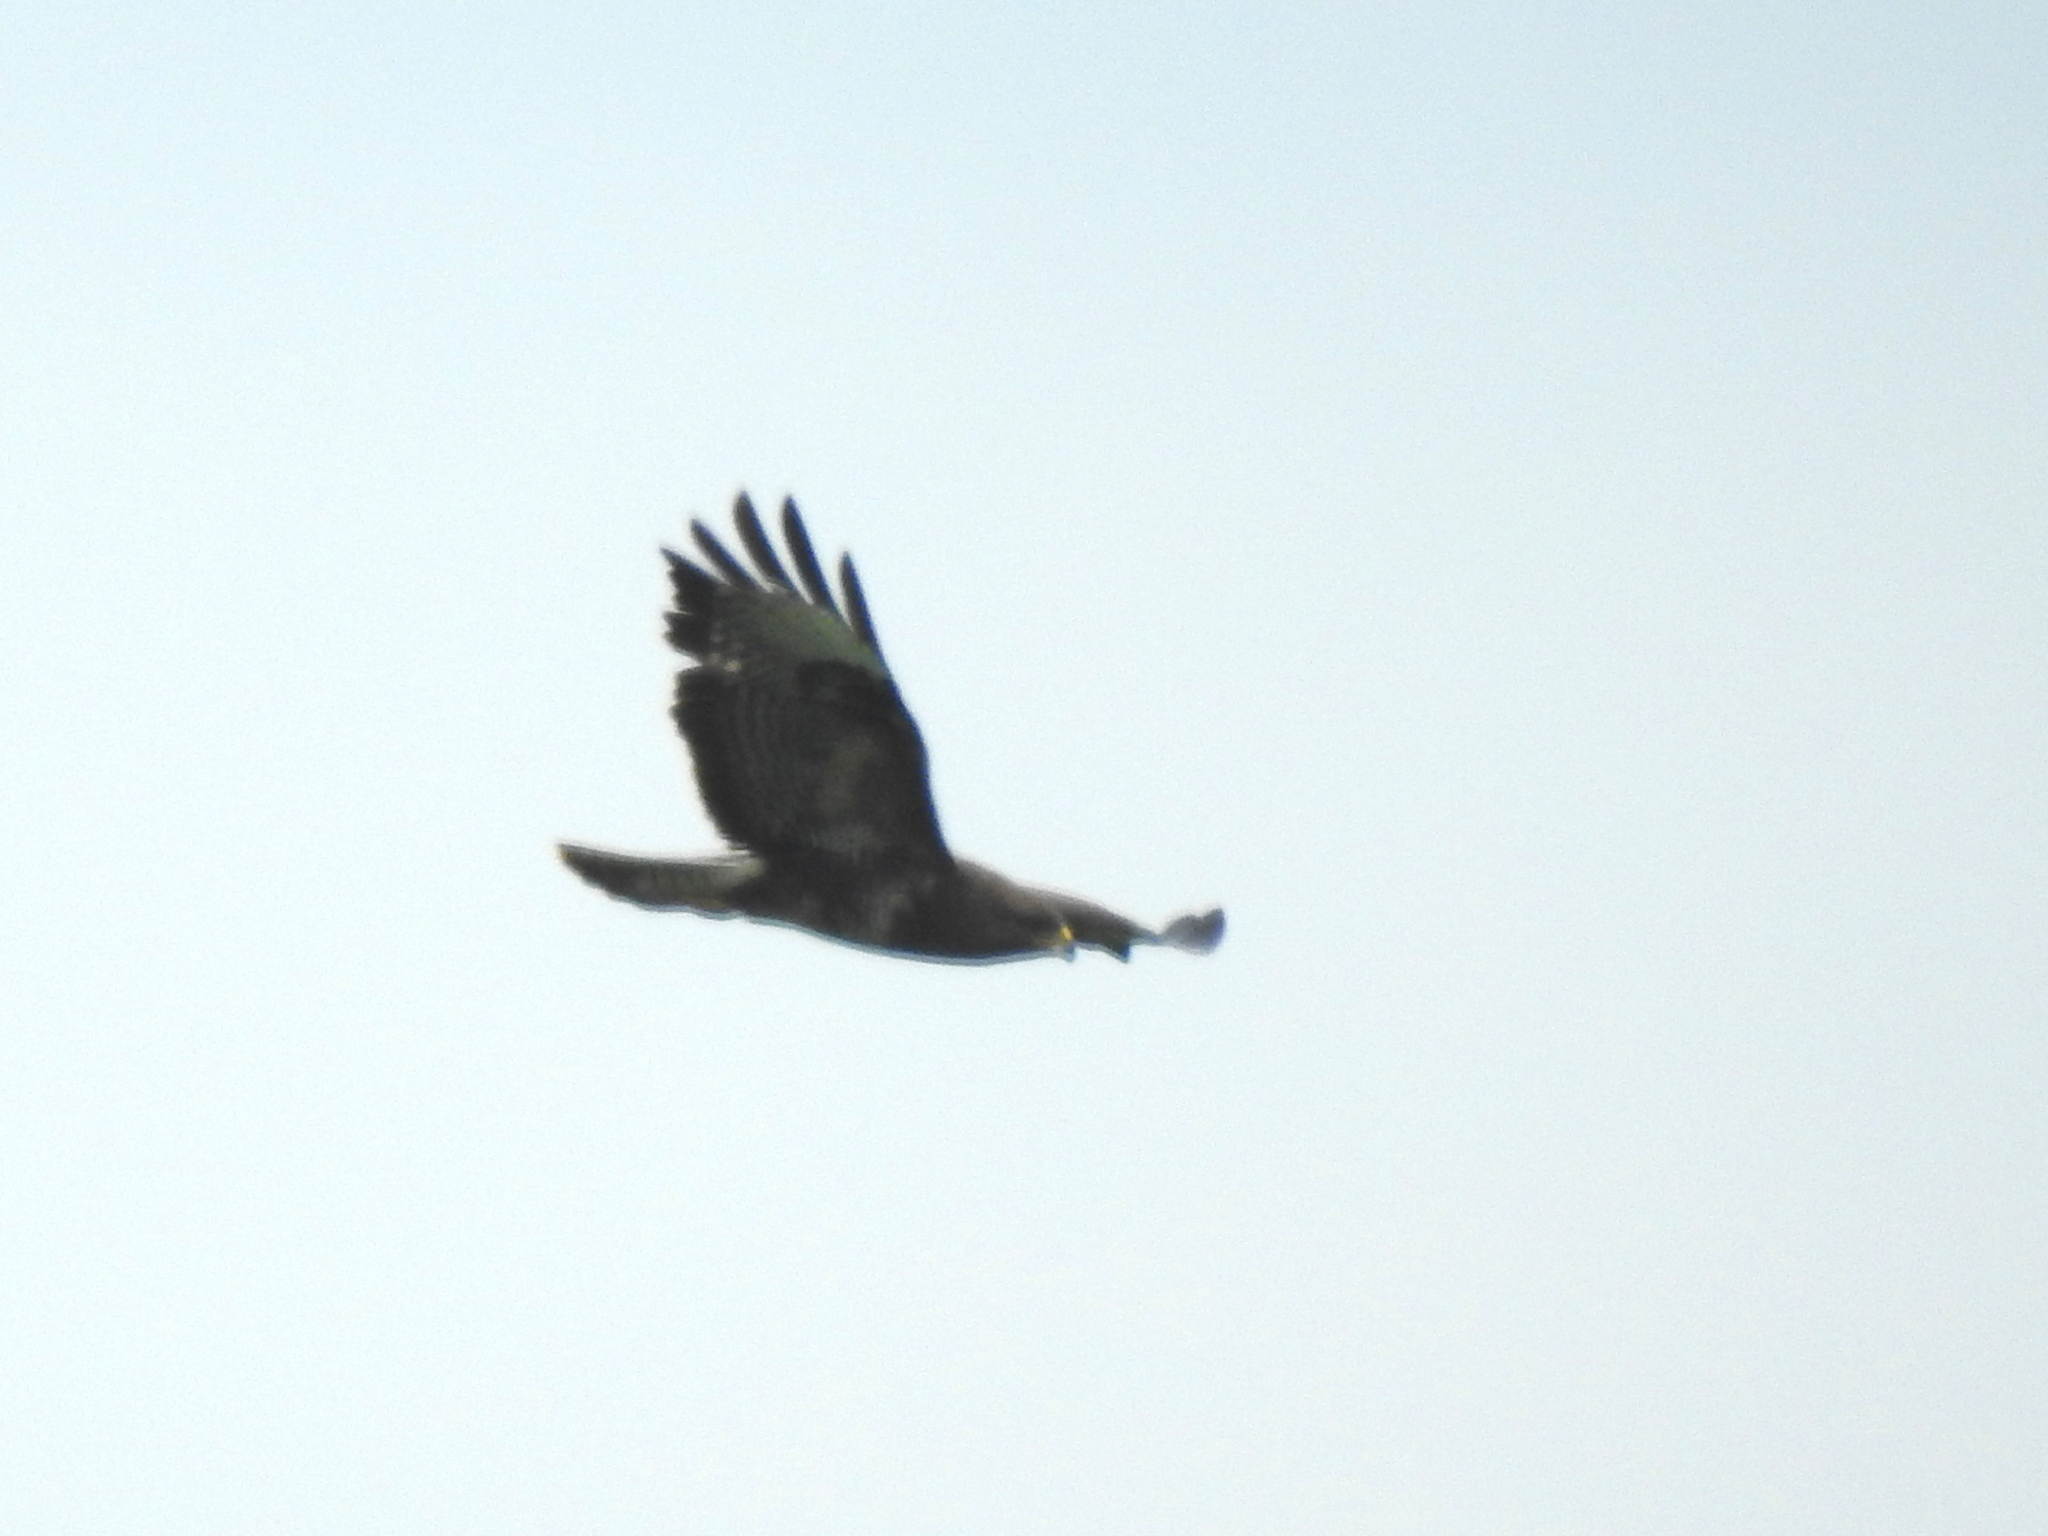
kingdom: Animalia
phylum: Chordata
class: Aves
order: Accipitriformes
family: Accipitridae
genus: Buteo
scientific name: Buteo buteo
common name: Common buzzard
